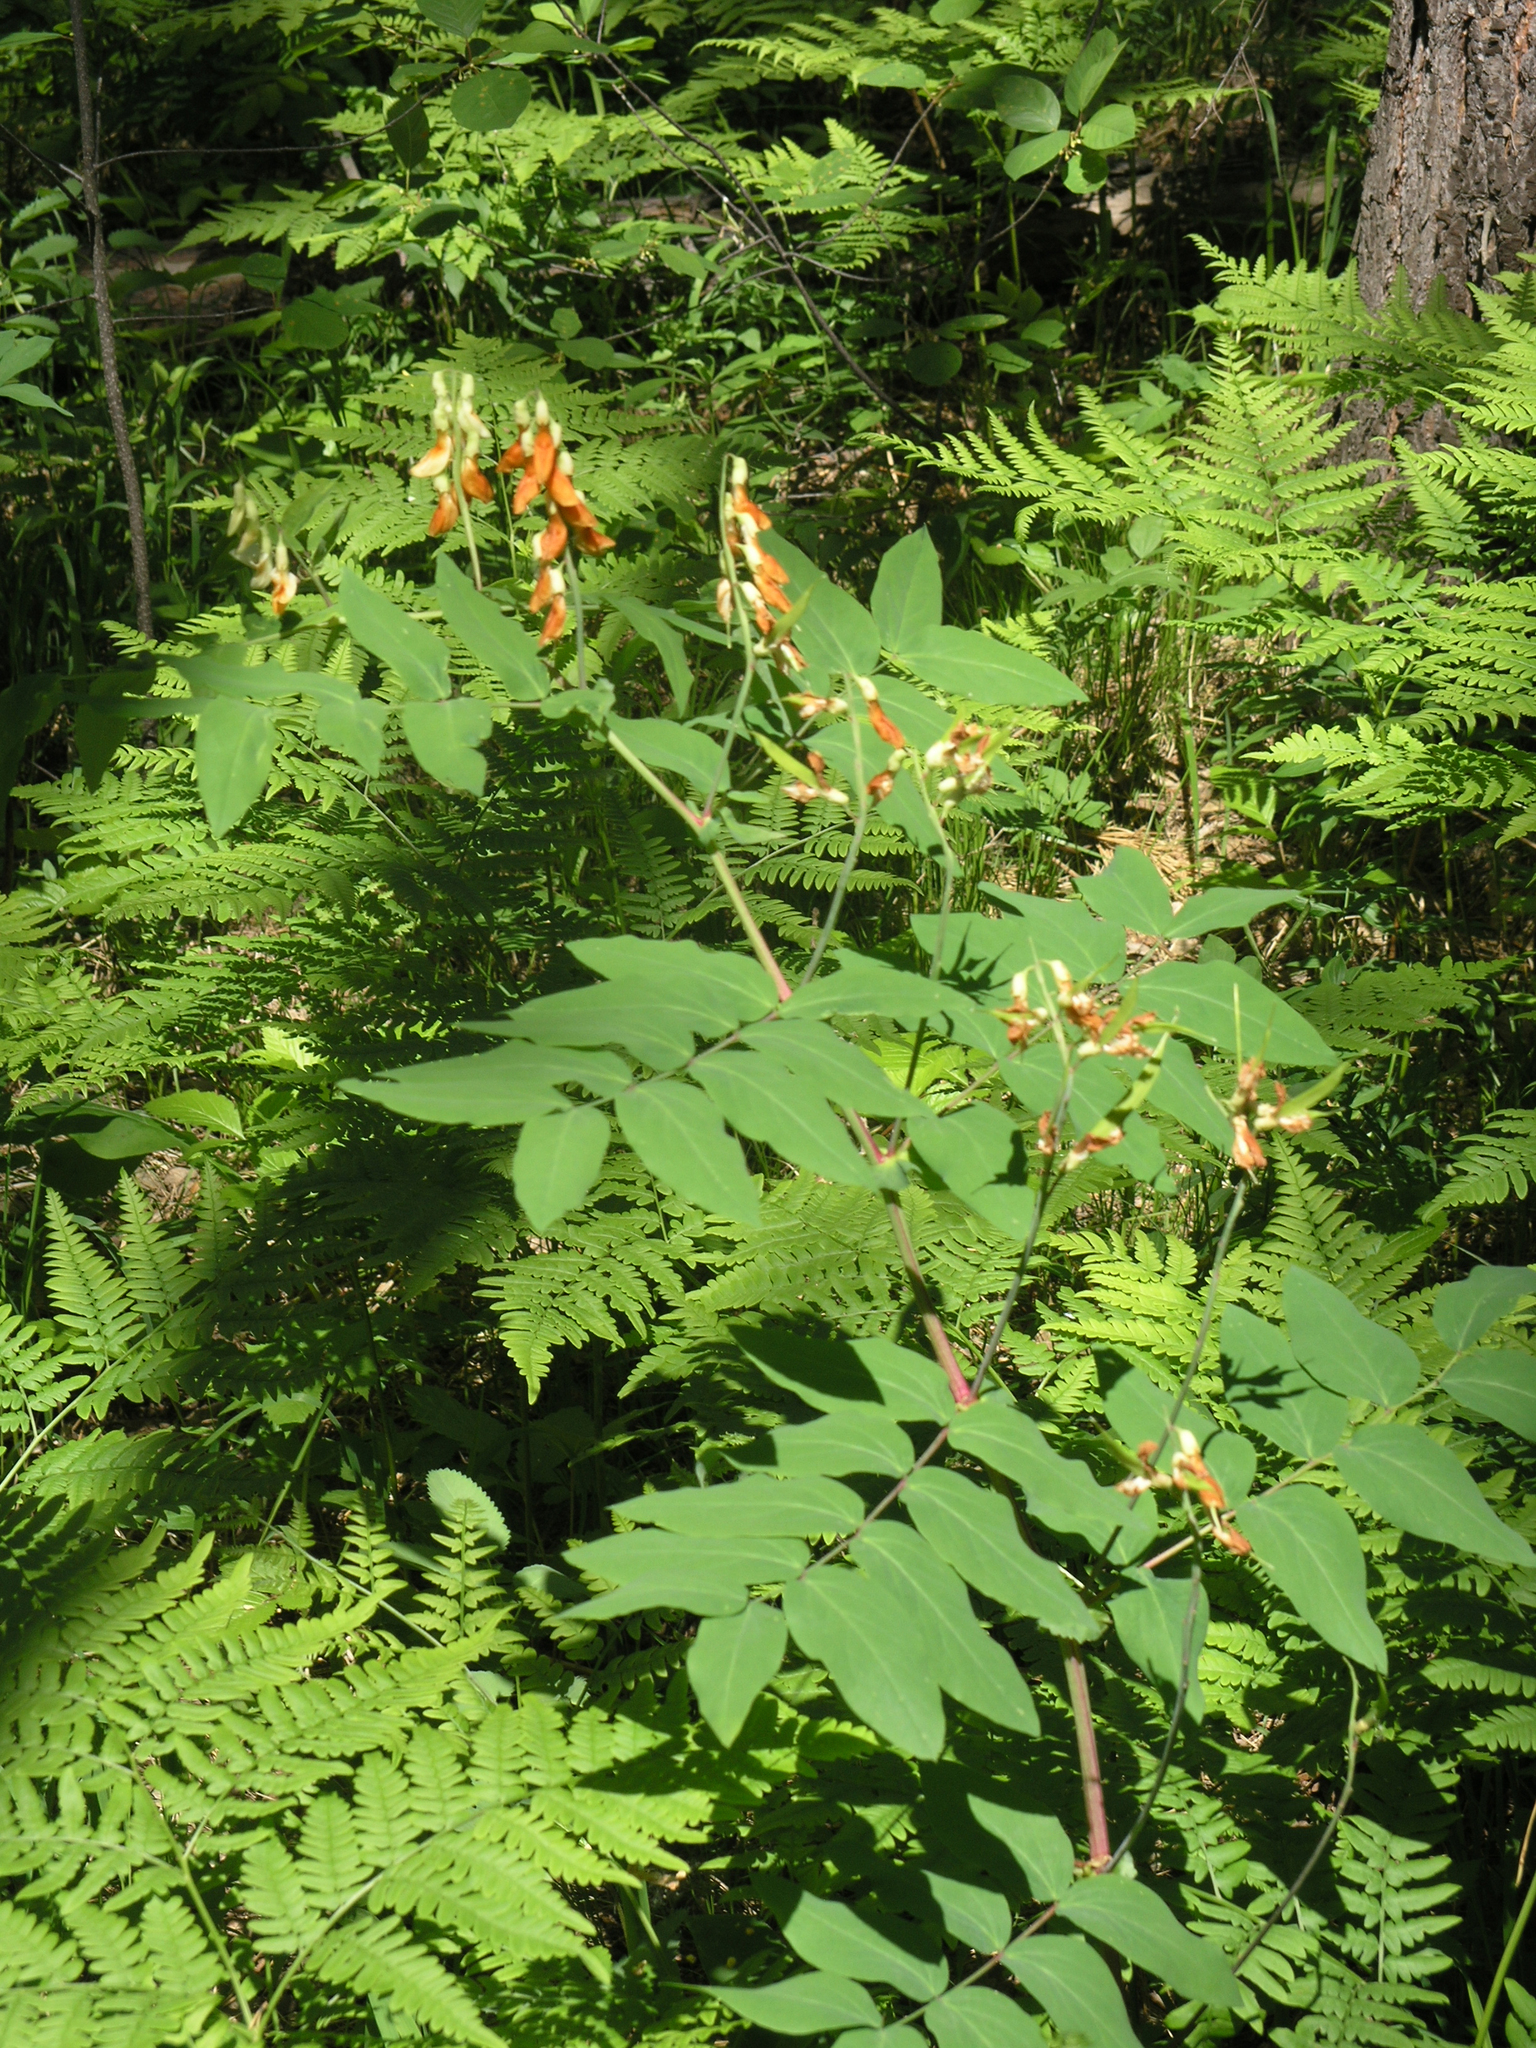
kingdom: Plantae
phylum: Tracheophyta
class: Magnoliopsida
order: Fabales
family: Fabaceae
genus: Lathyrus
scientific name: Lathyrus gmelinii
